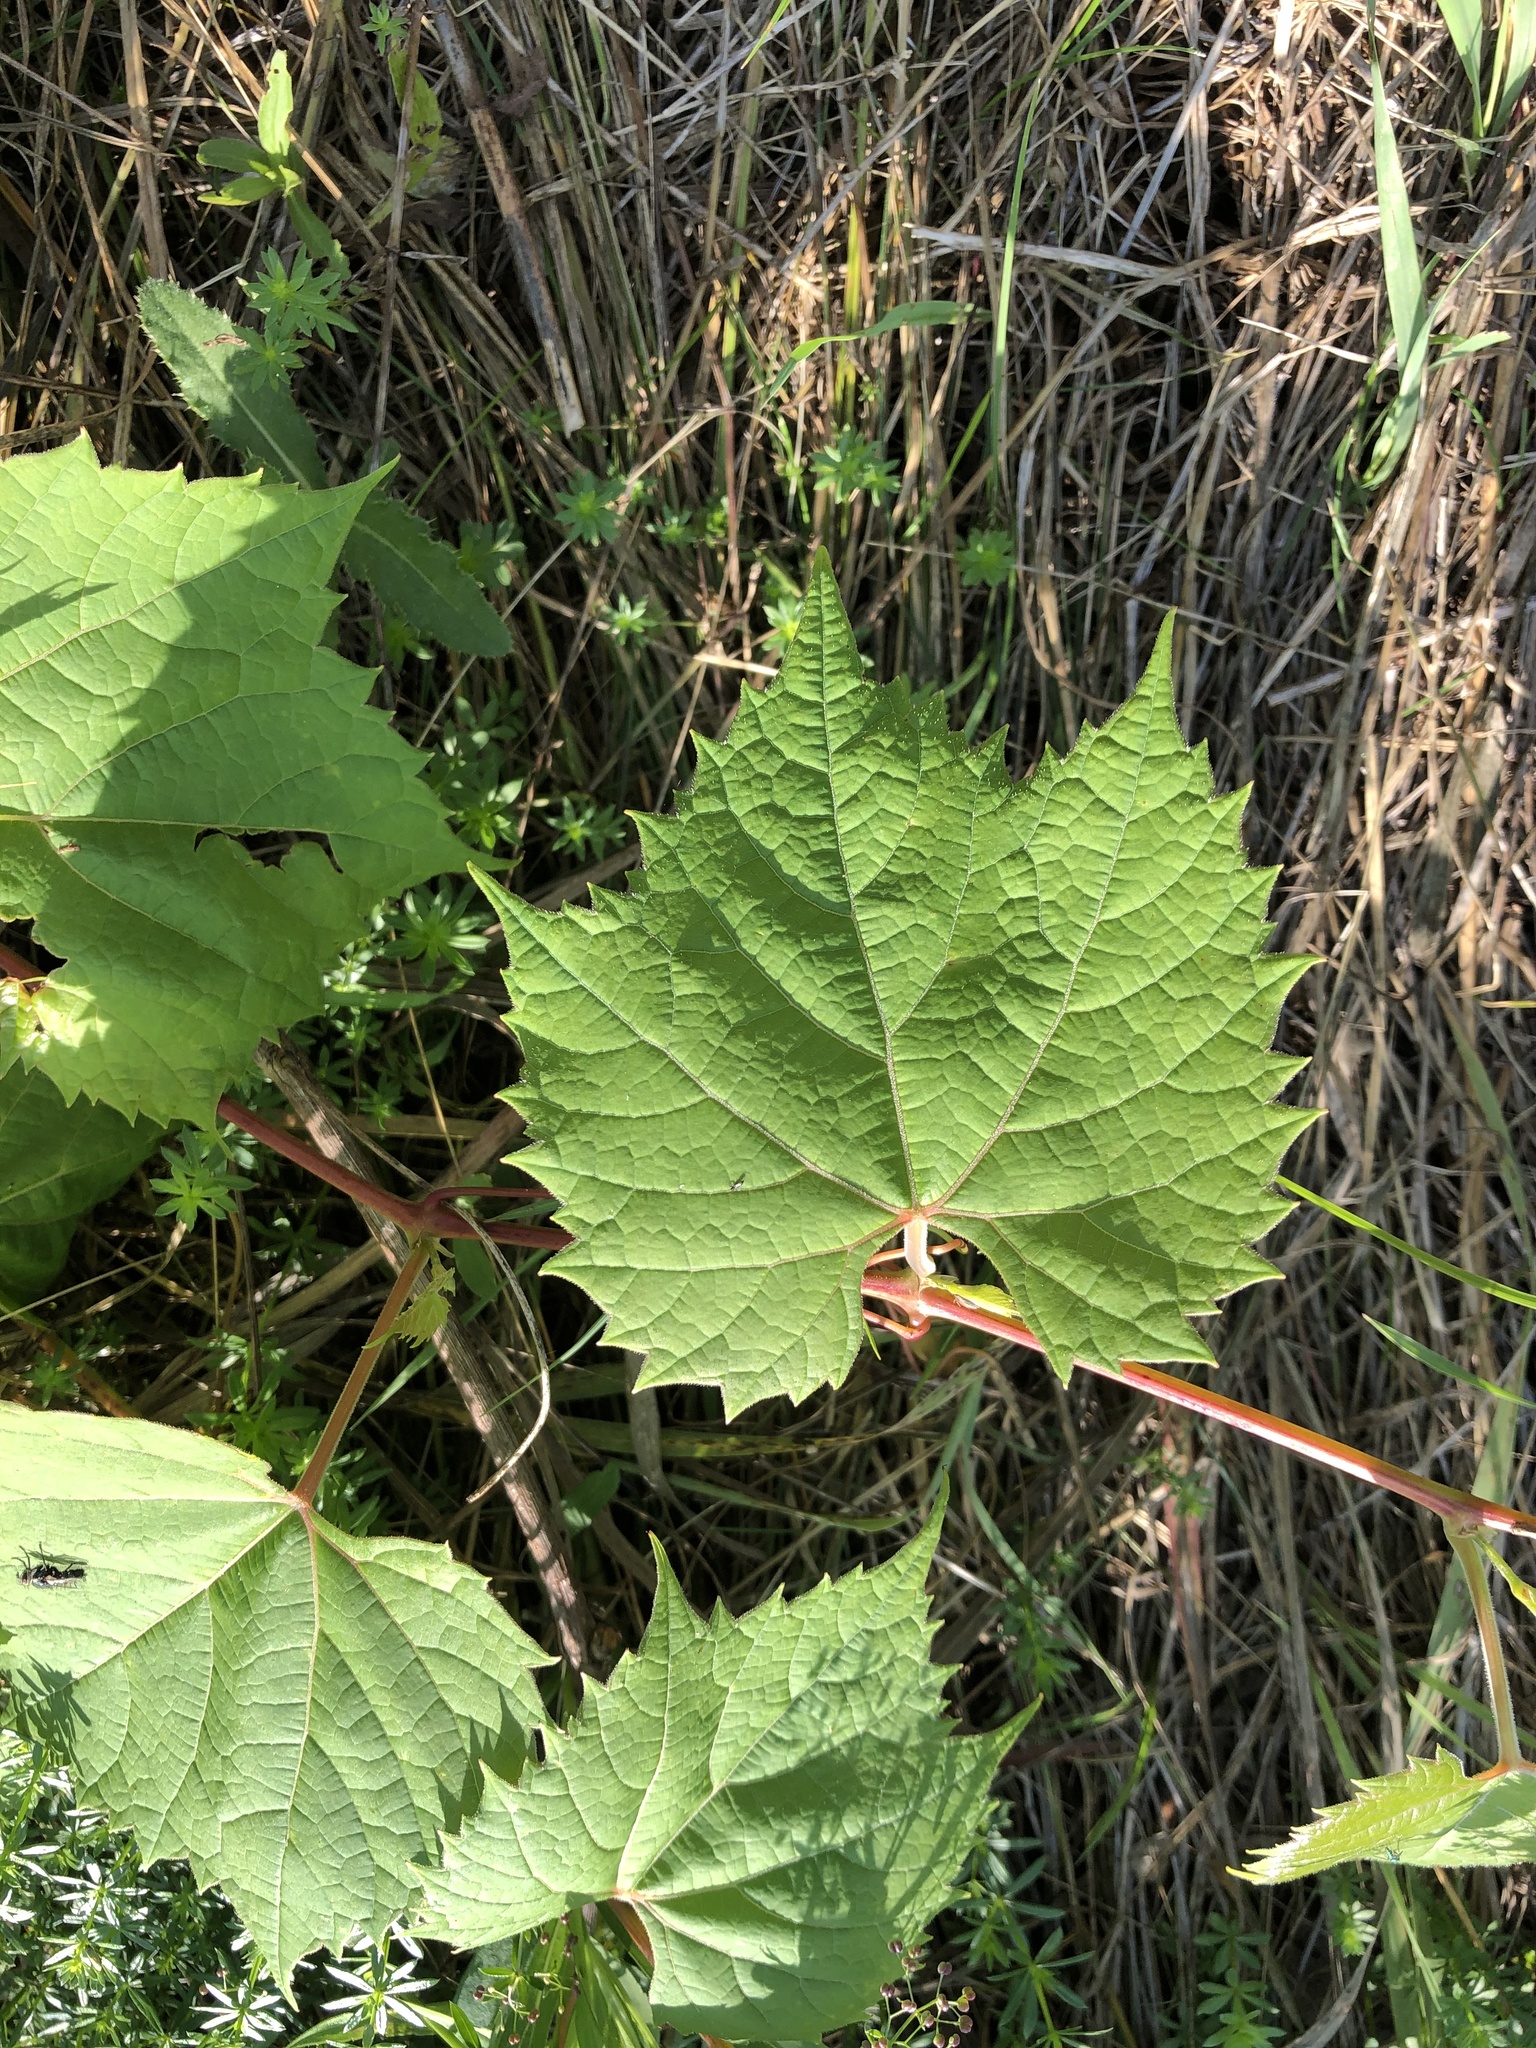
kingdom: Plantae
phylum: Tracheophyta
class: Magnoliopsida
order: Vitales
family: Vitaceae
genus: Vitis
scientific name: Vitis riparia
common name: Frost grape
